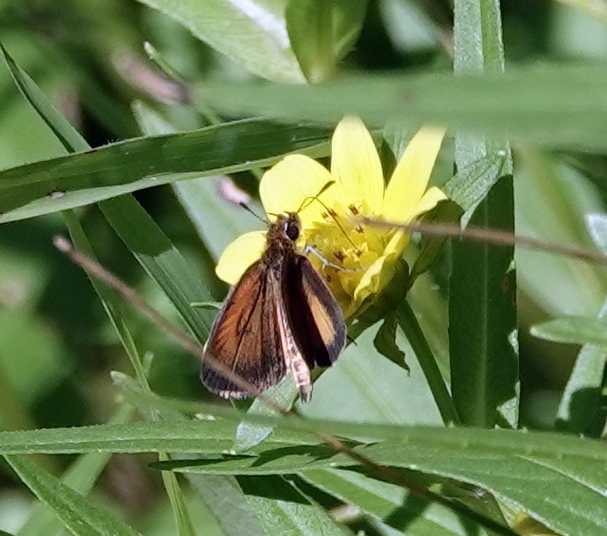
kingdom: Animalia
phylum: Arthropoda
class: Insecta
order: Lepidoptera
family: Hesperiidae
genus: Ancyloxypha
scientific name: Ancyloxypha numitor
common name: Least skipper
